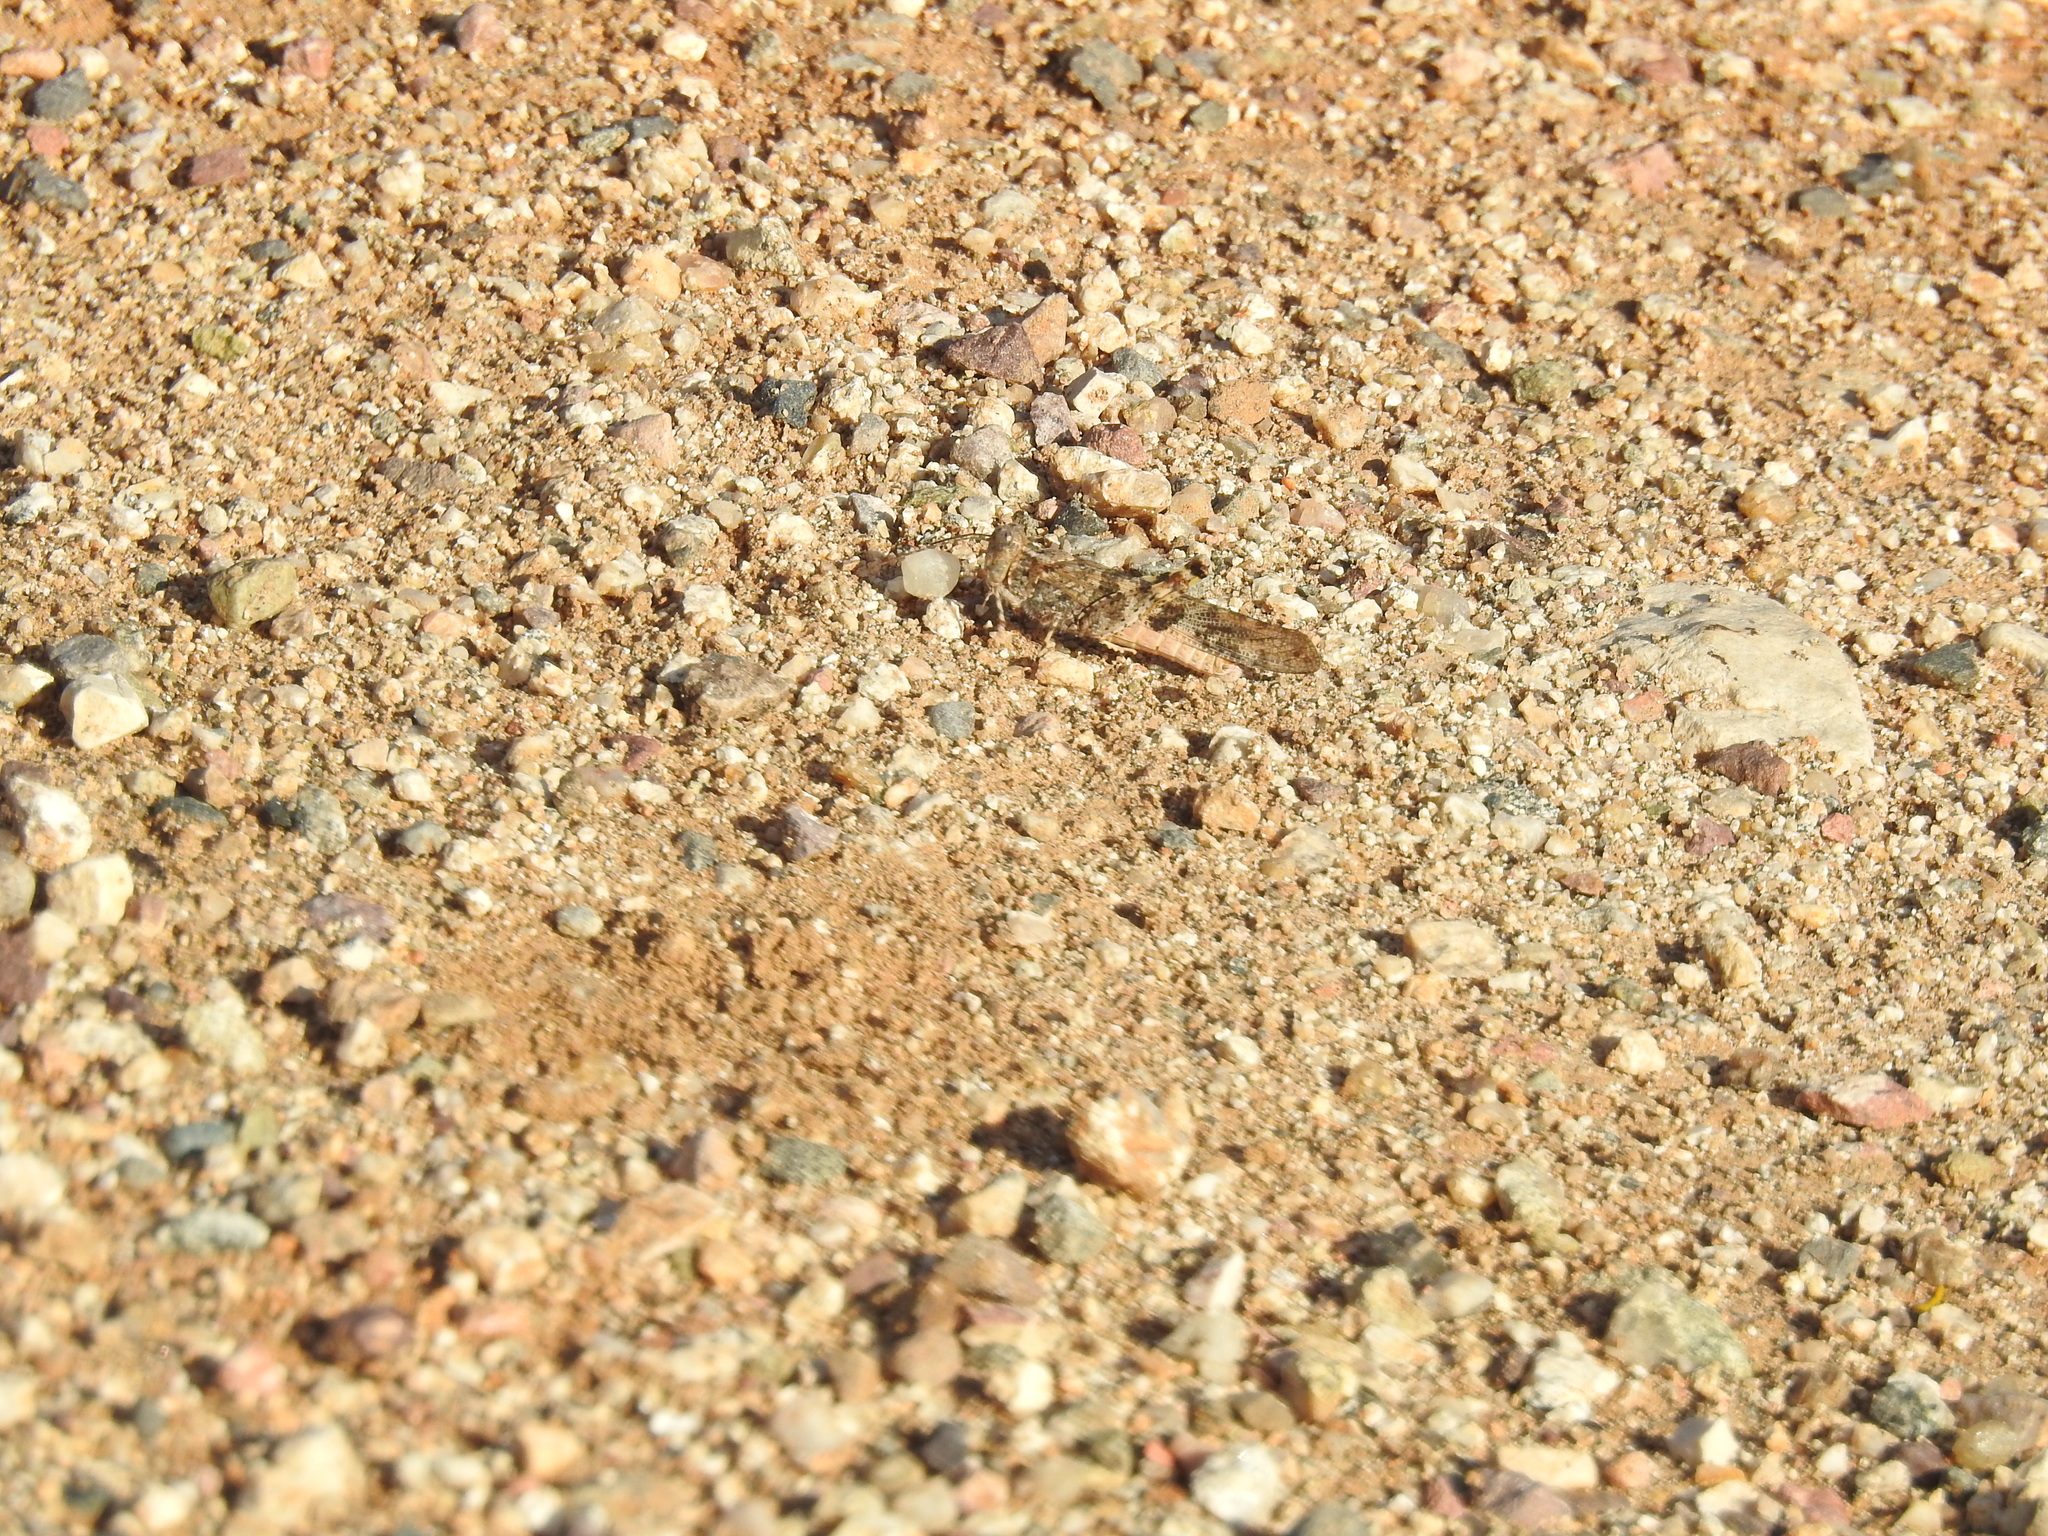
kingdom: Animalia
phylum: Arthropoda
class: Insecta
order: Orthoptera
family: Acrididae
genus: Trimerotropis
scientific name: Trimerotropis pallidipennis
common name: Pallid-winged grasshopper
